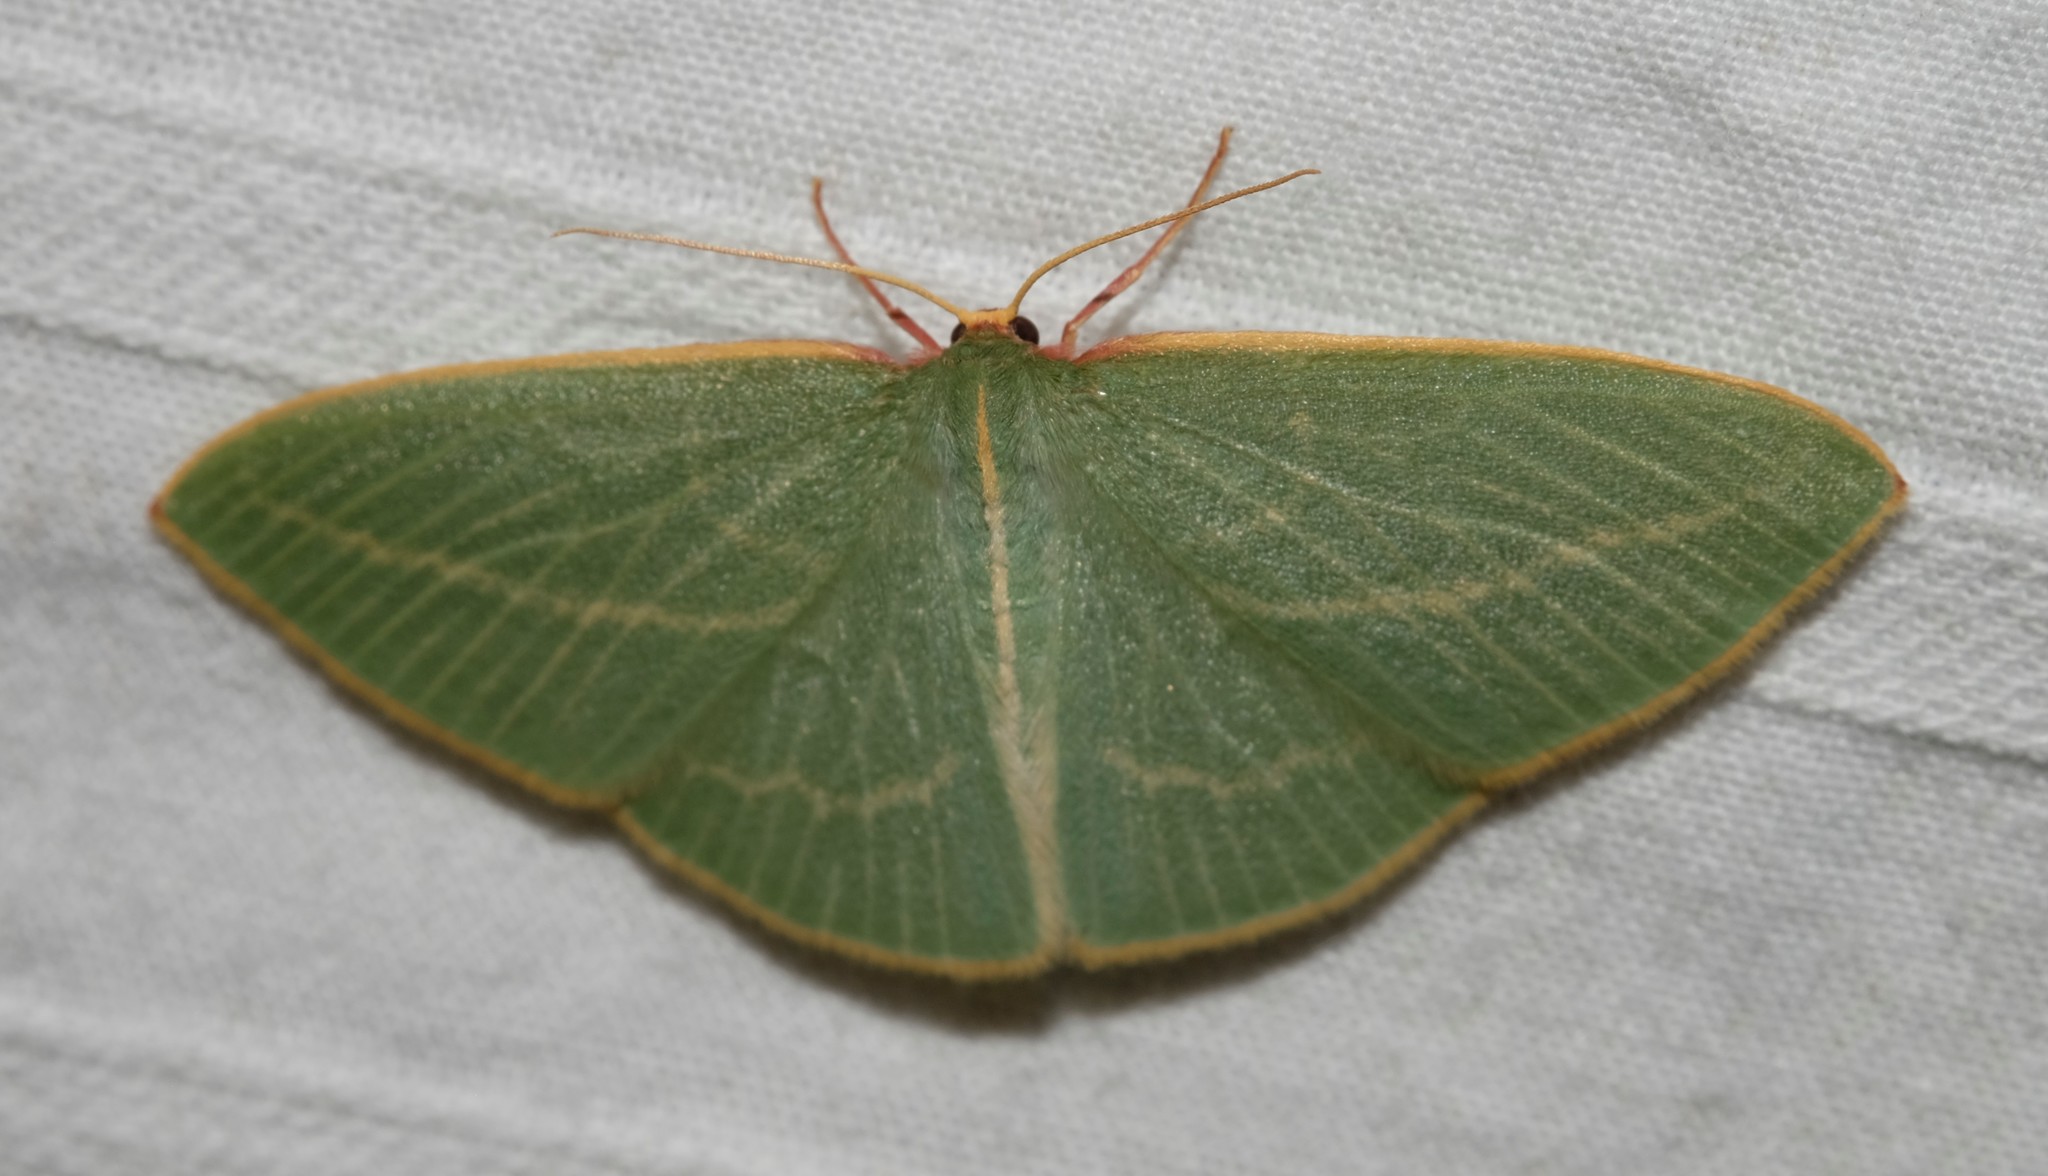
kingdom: Animalia
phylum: Arthropoda
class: Insecta
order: Lepidoptera
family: Geometridae
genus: Chlorocoma
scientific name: Chlorocoma carenaria
